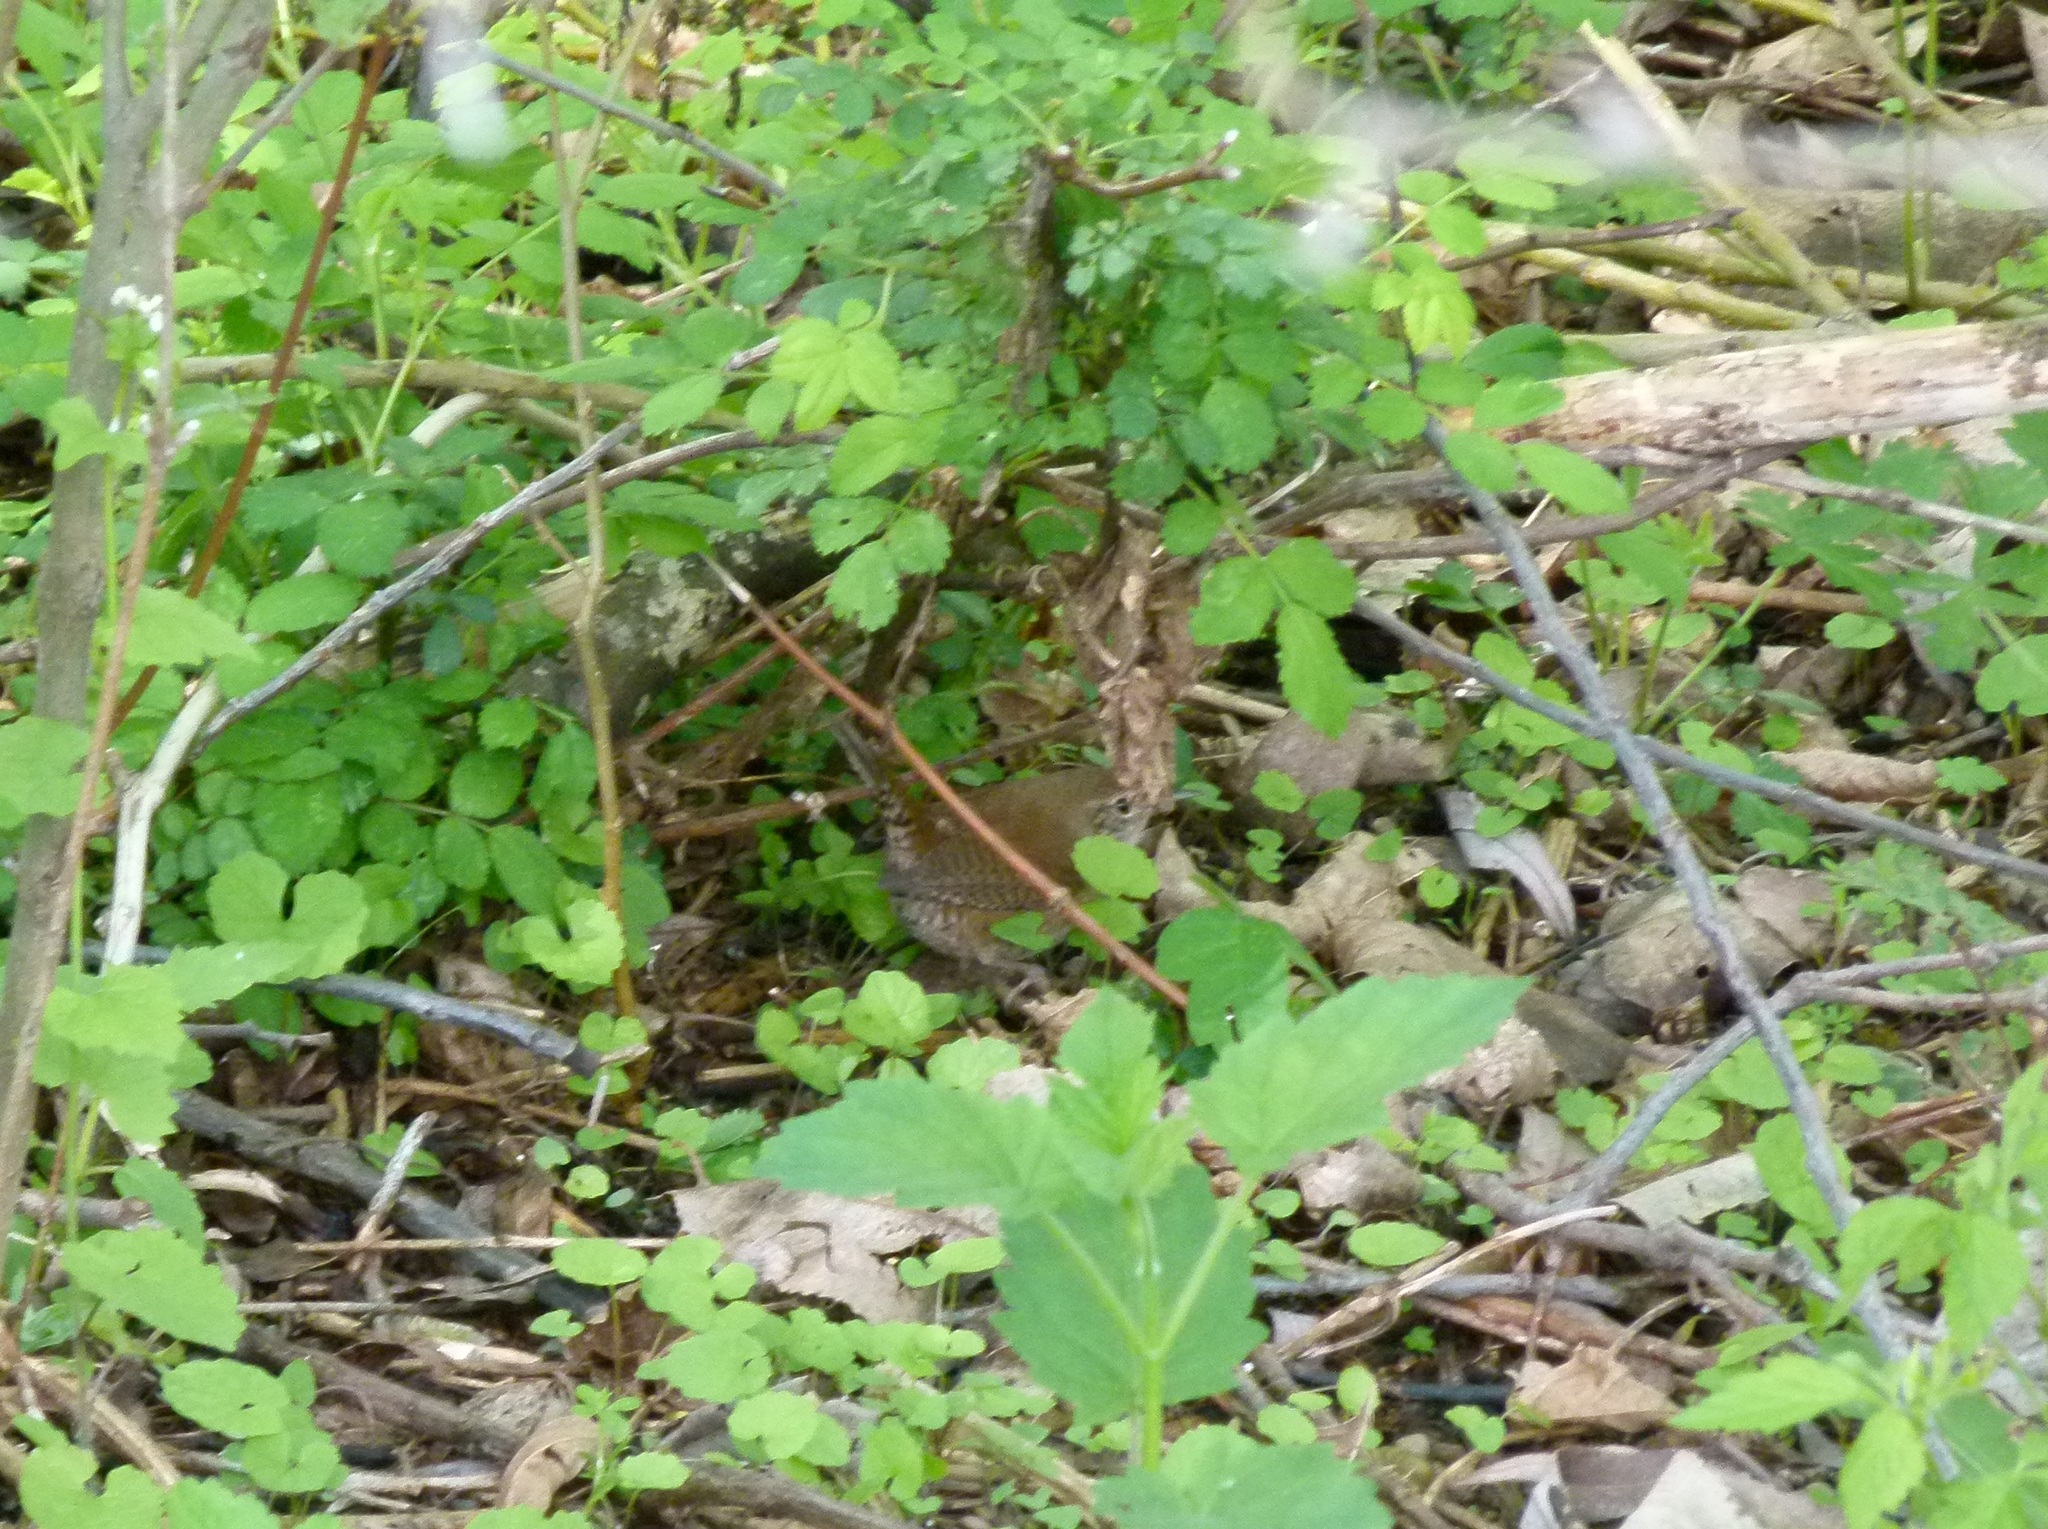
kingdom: Animalia
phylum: Chordata
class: Aves
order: Passeriformes
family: Troglodytidae
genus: Troglodytes
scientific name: Troglodytes aedon
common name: House wren
